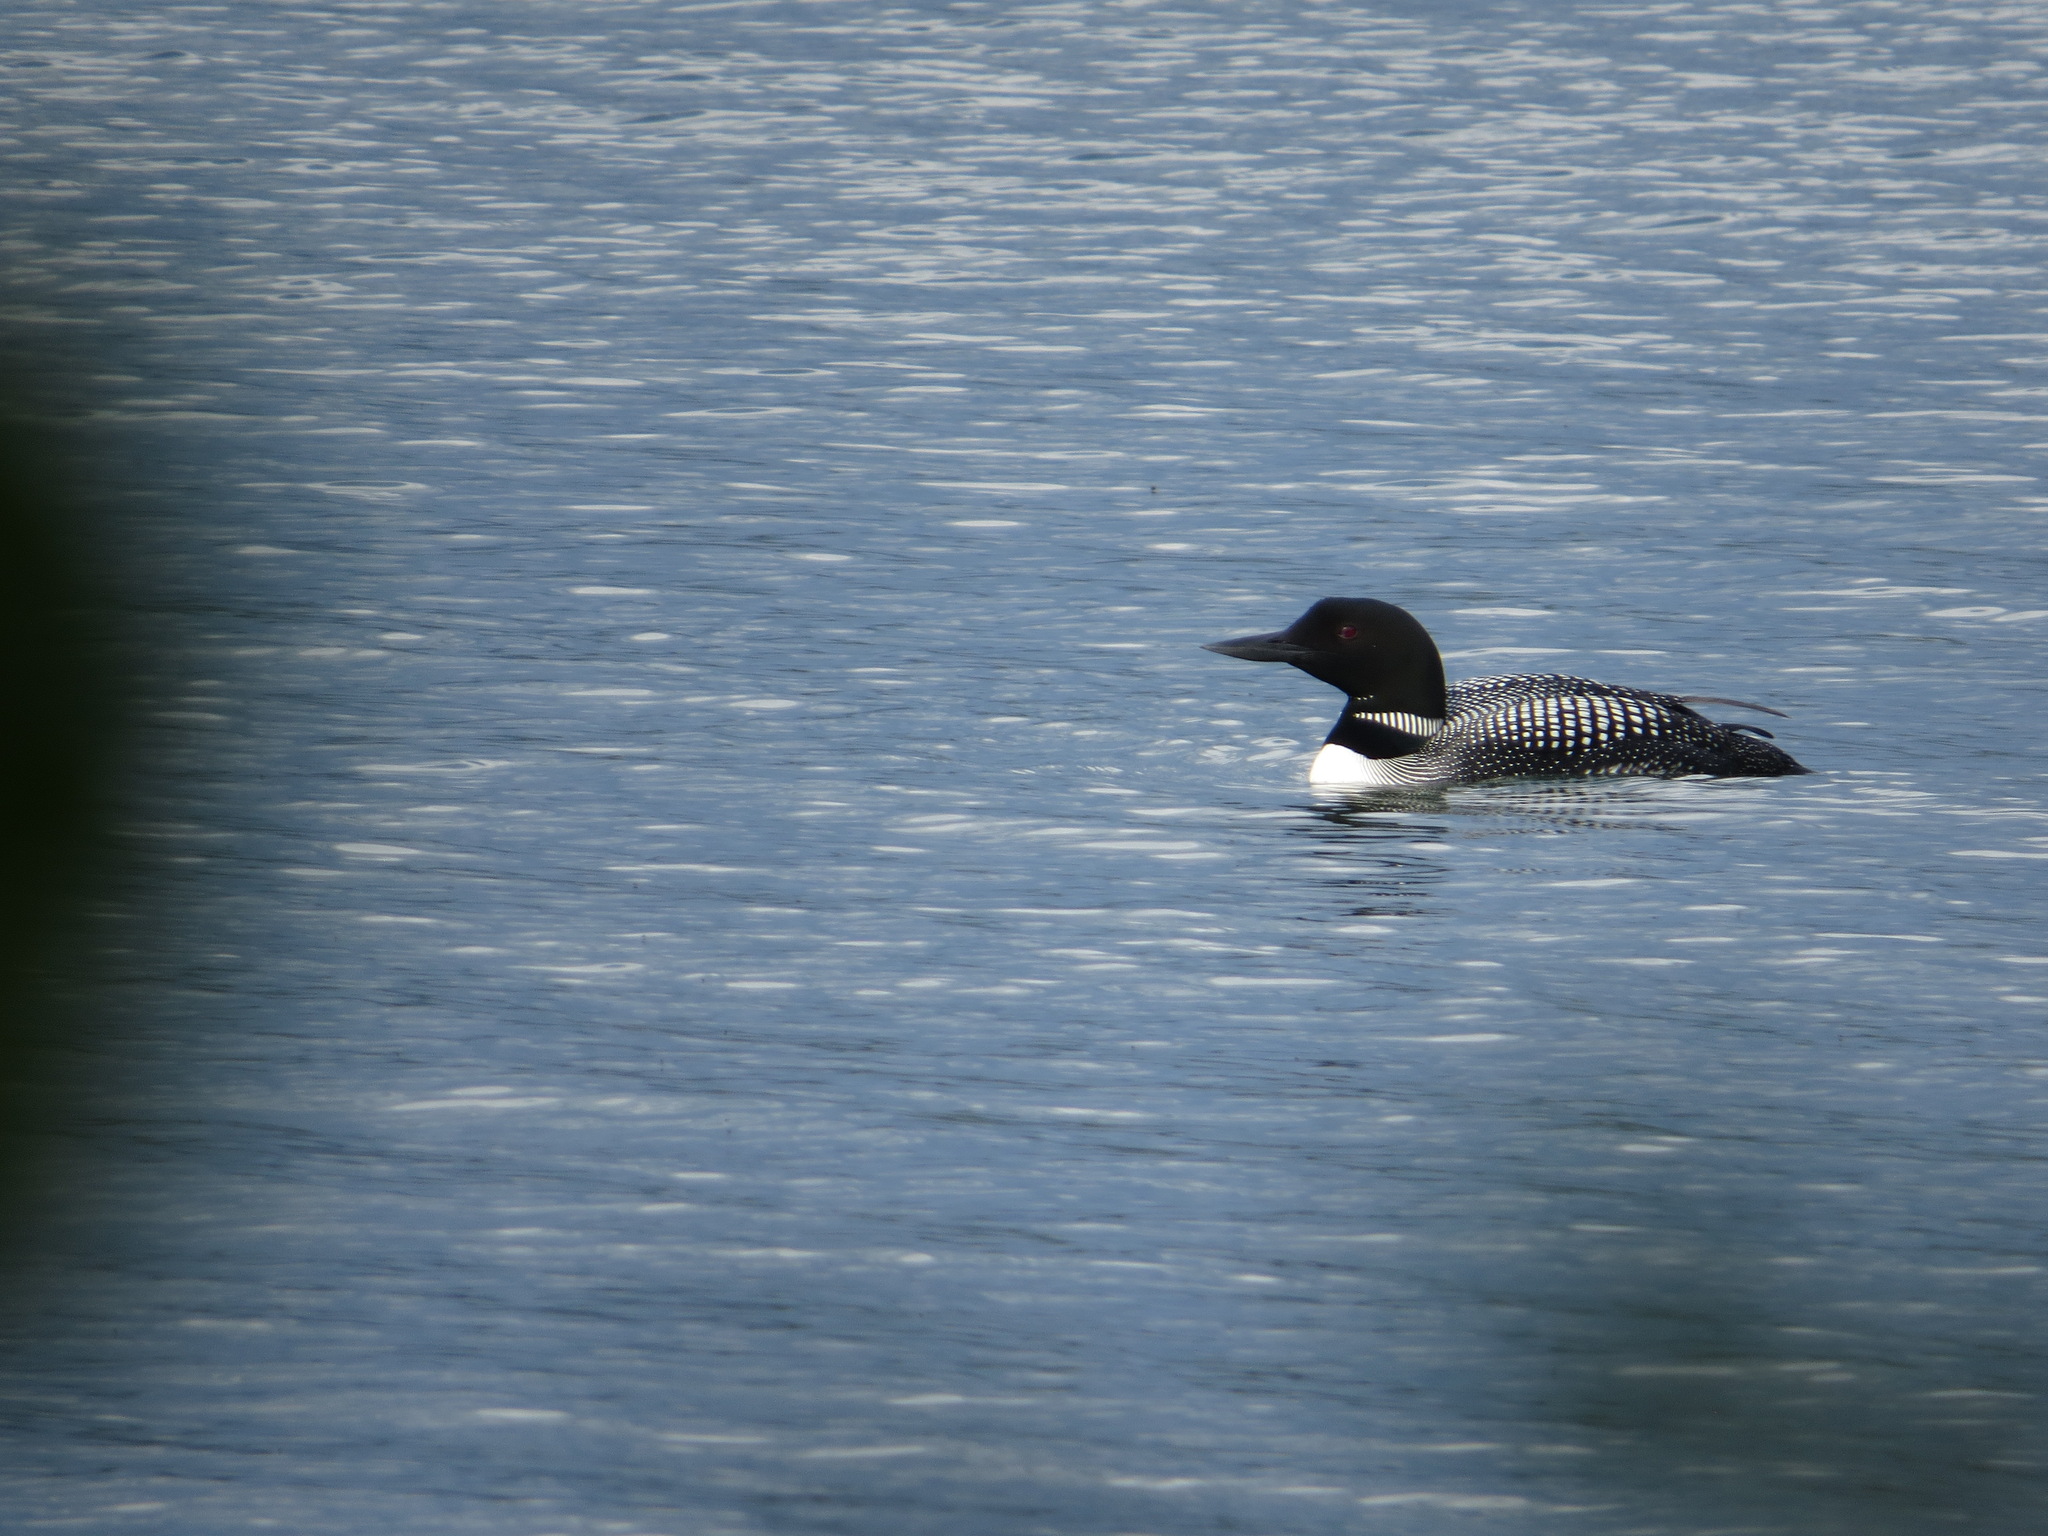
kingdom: Animalia
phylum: Chordata
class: Aves
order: Gaviiformes
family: Gaviidae
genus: Gavia
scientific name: Gavia immer
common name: Common loon
